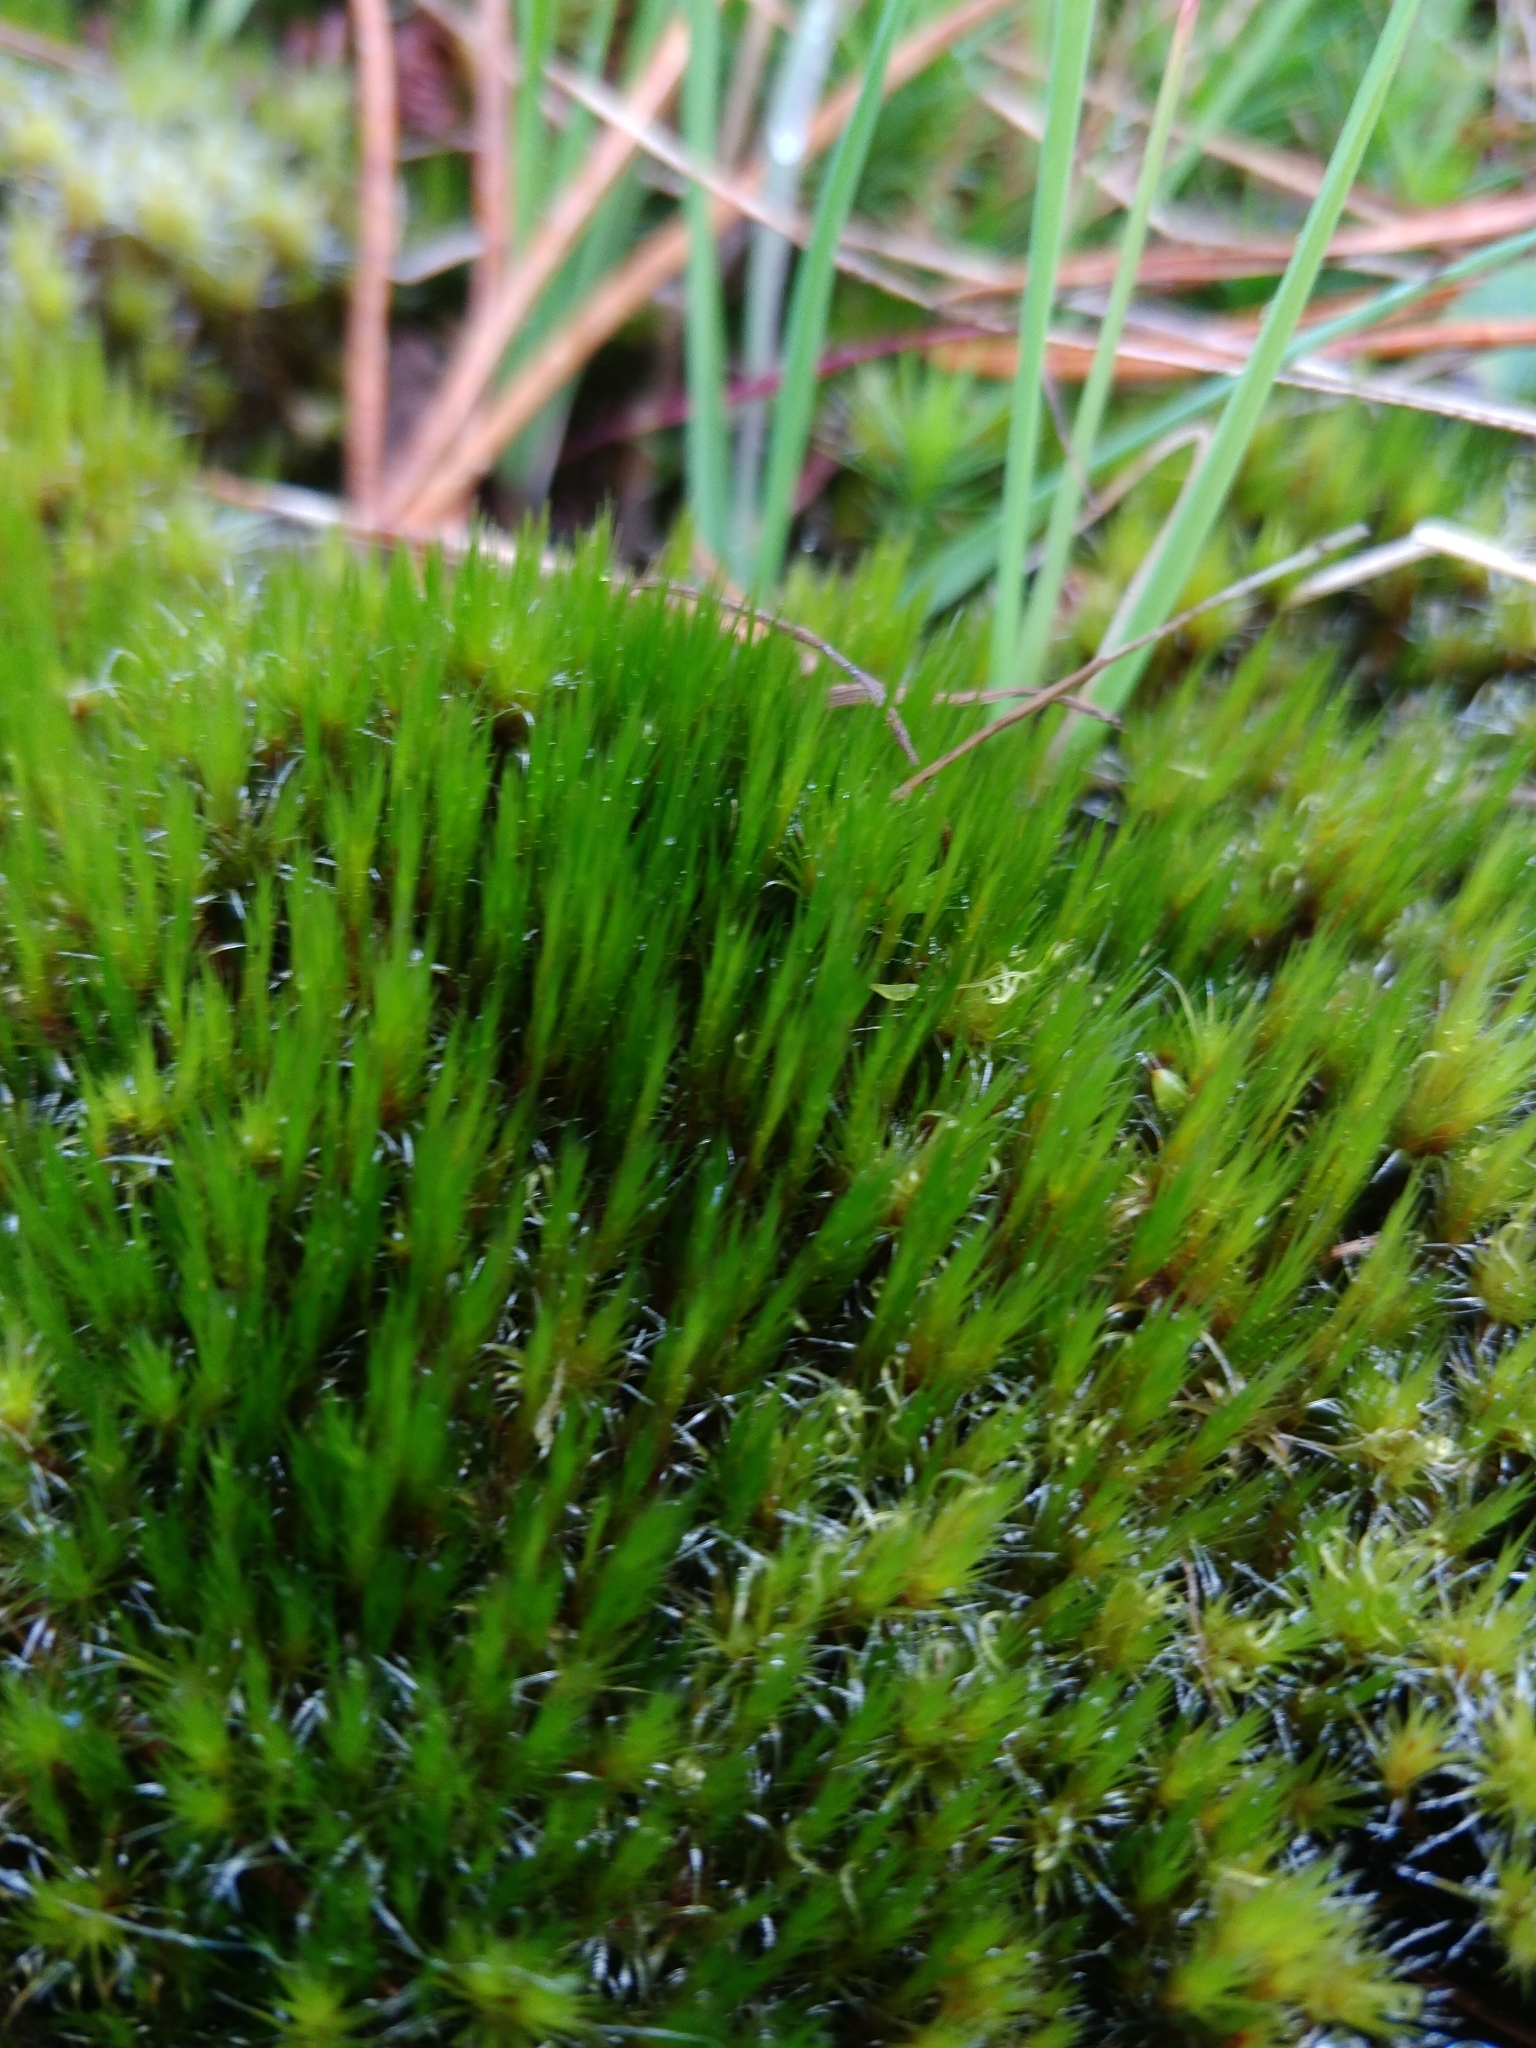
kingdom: Plantae
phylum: Bryophyta
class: Bryopsida
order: Dicranales
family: Leucobryaceae
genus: Campylopus
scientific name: Campylopus introflexus
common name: Heath star moss
